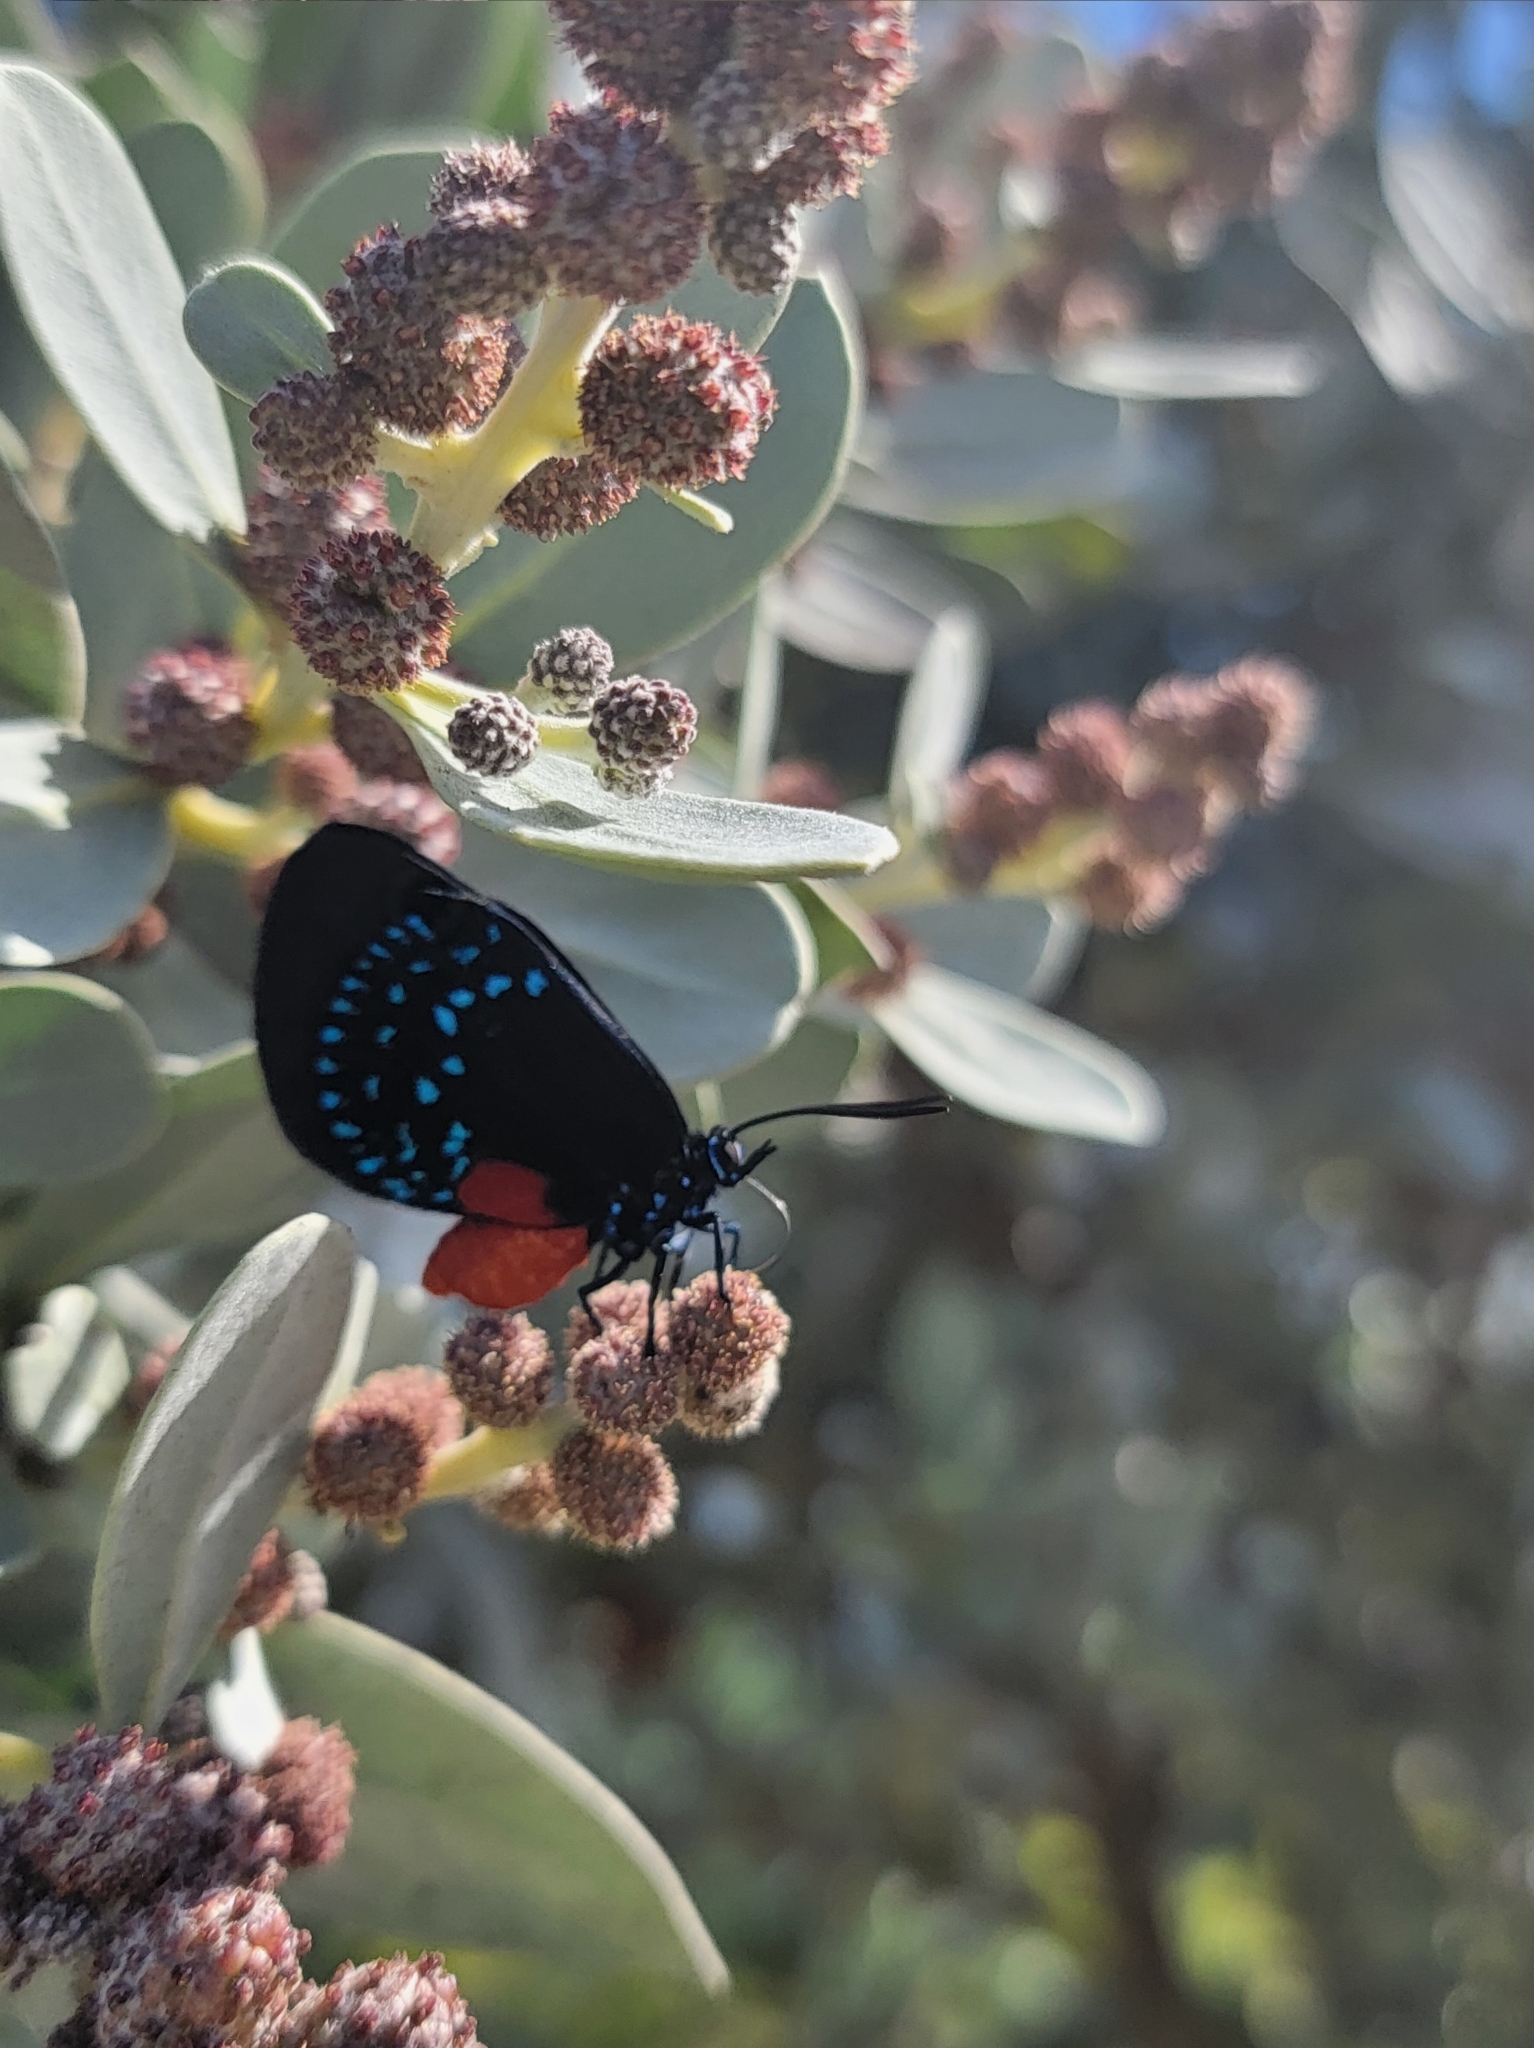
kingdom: Animalia
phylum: Arthropoda
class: Insecta
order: Lepidoptera
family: Lycaenidae
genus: Eumaeus
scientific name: Eumaeus atala
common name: Atala
